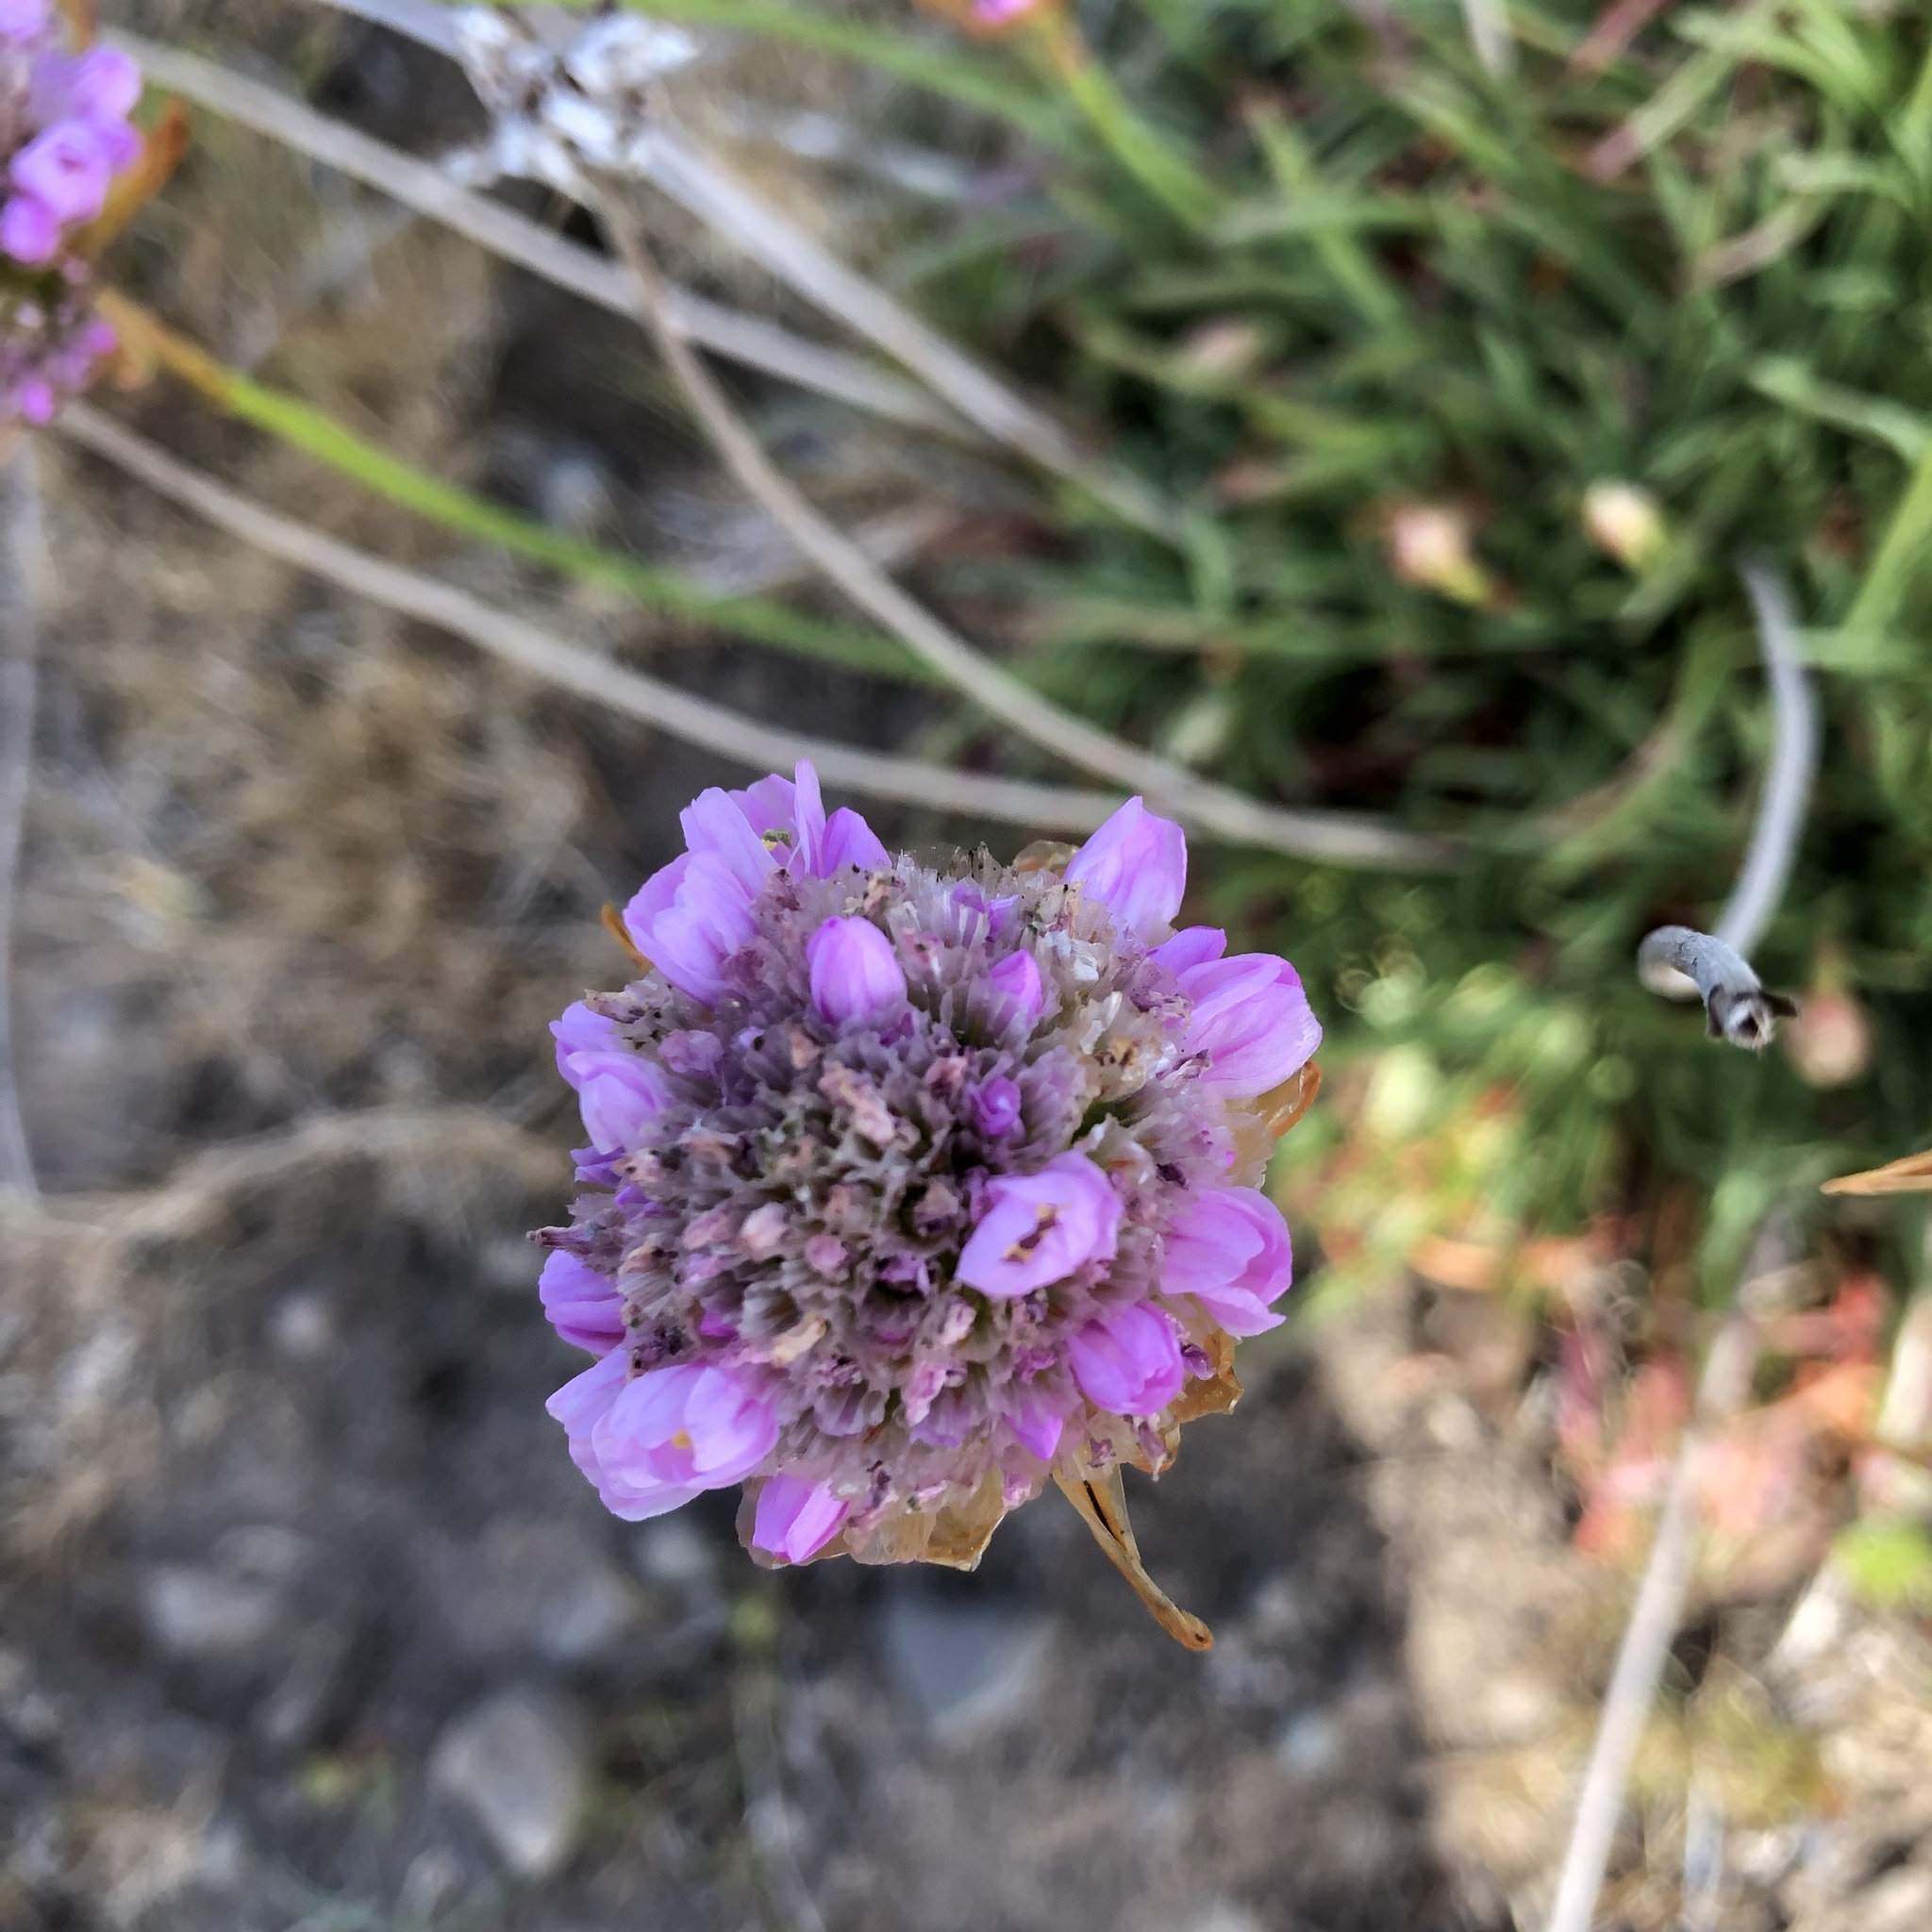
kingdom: Plantae
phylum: Tracheophyta
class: Magnoliopsida
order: Caryophyllales
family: Plumbaginaceae
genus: Armeria
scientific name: Armeria maritima
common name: Thrift
